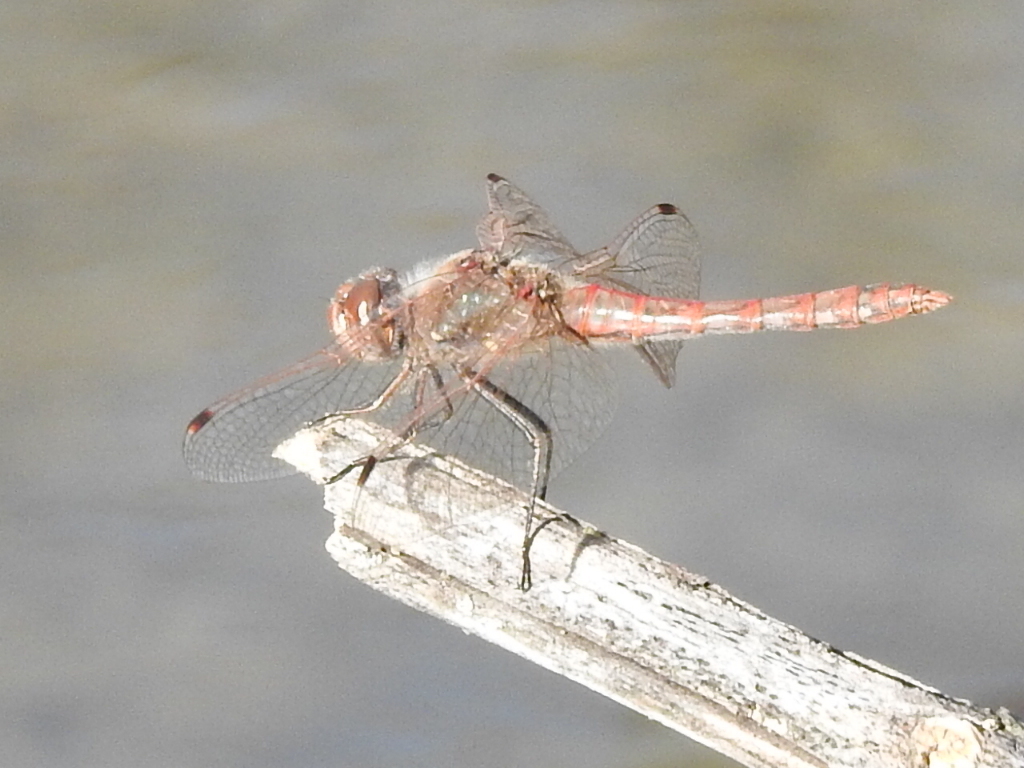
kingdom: Animalia
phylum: Arthropoda
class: Insecta
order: Odonata
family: Libellulidae
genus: Sympetrum
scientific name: Sympetrum corruptum
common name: Variegated meadowhawk
